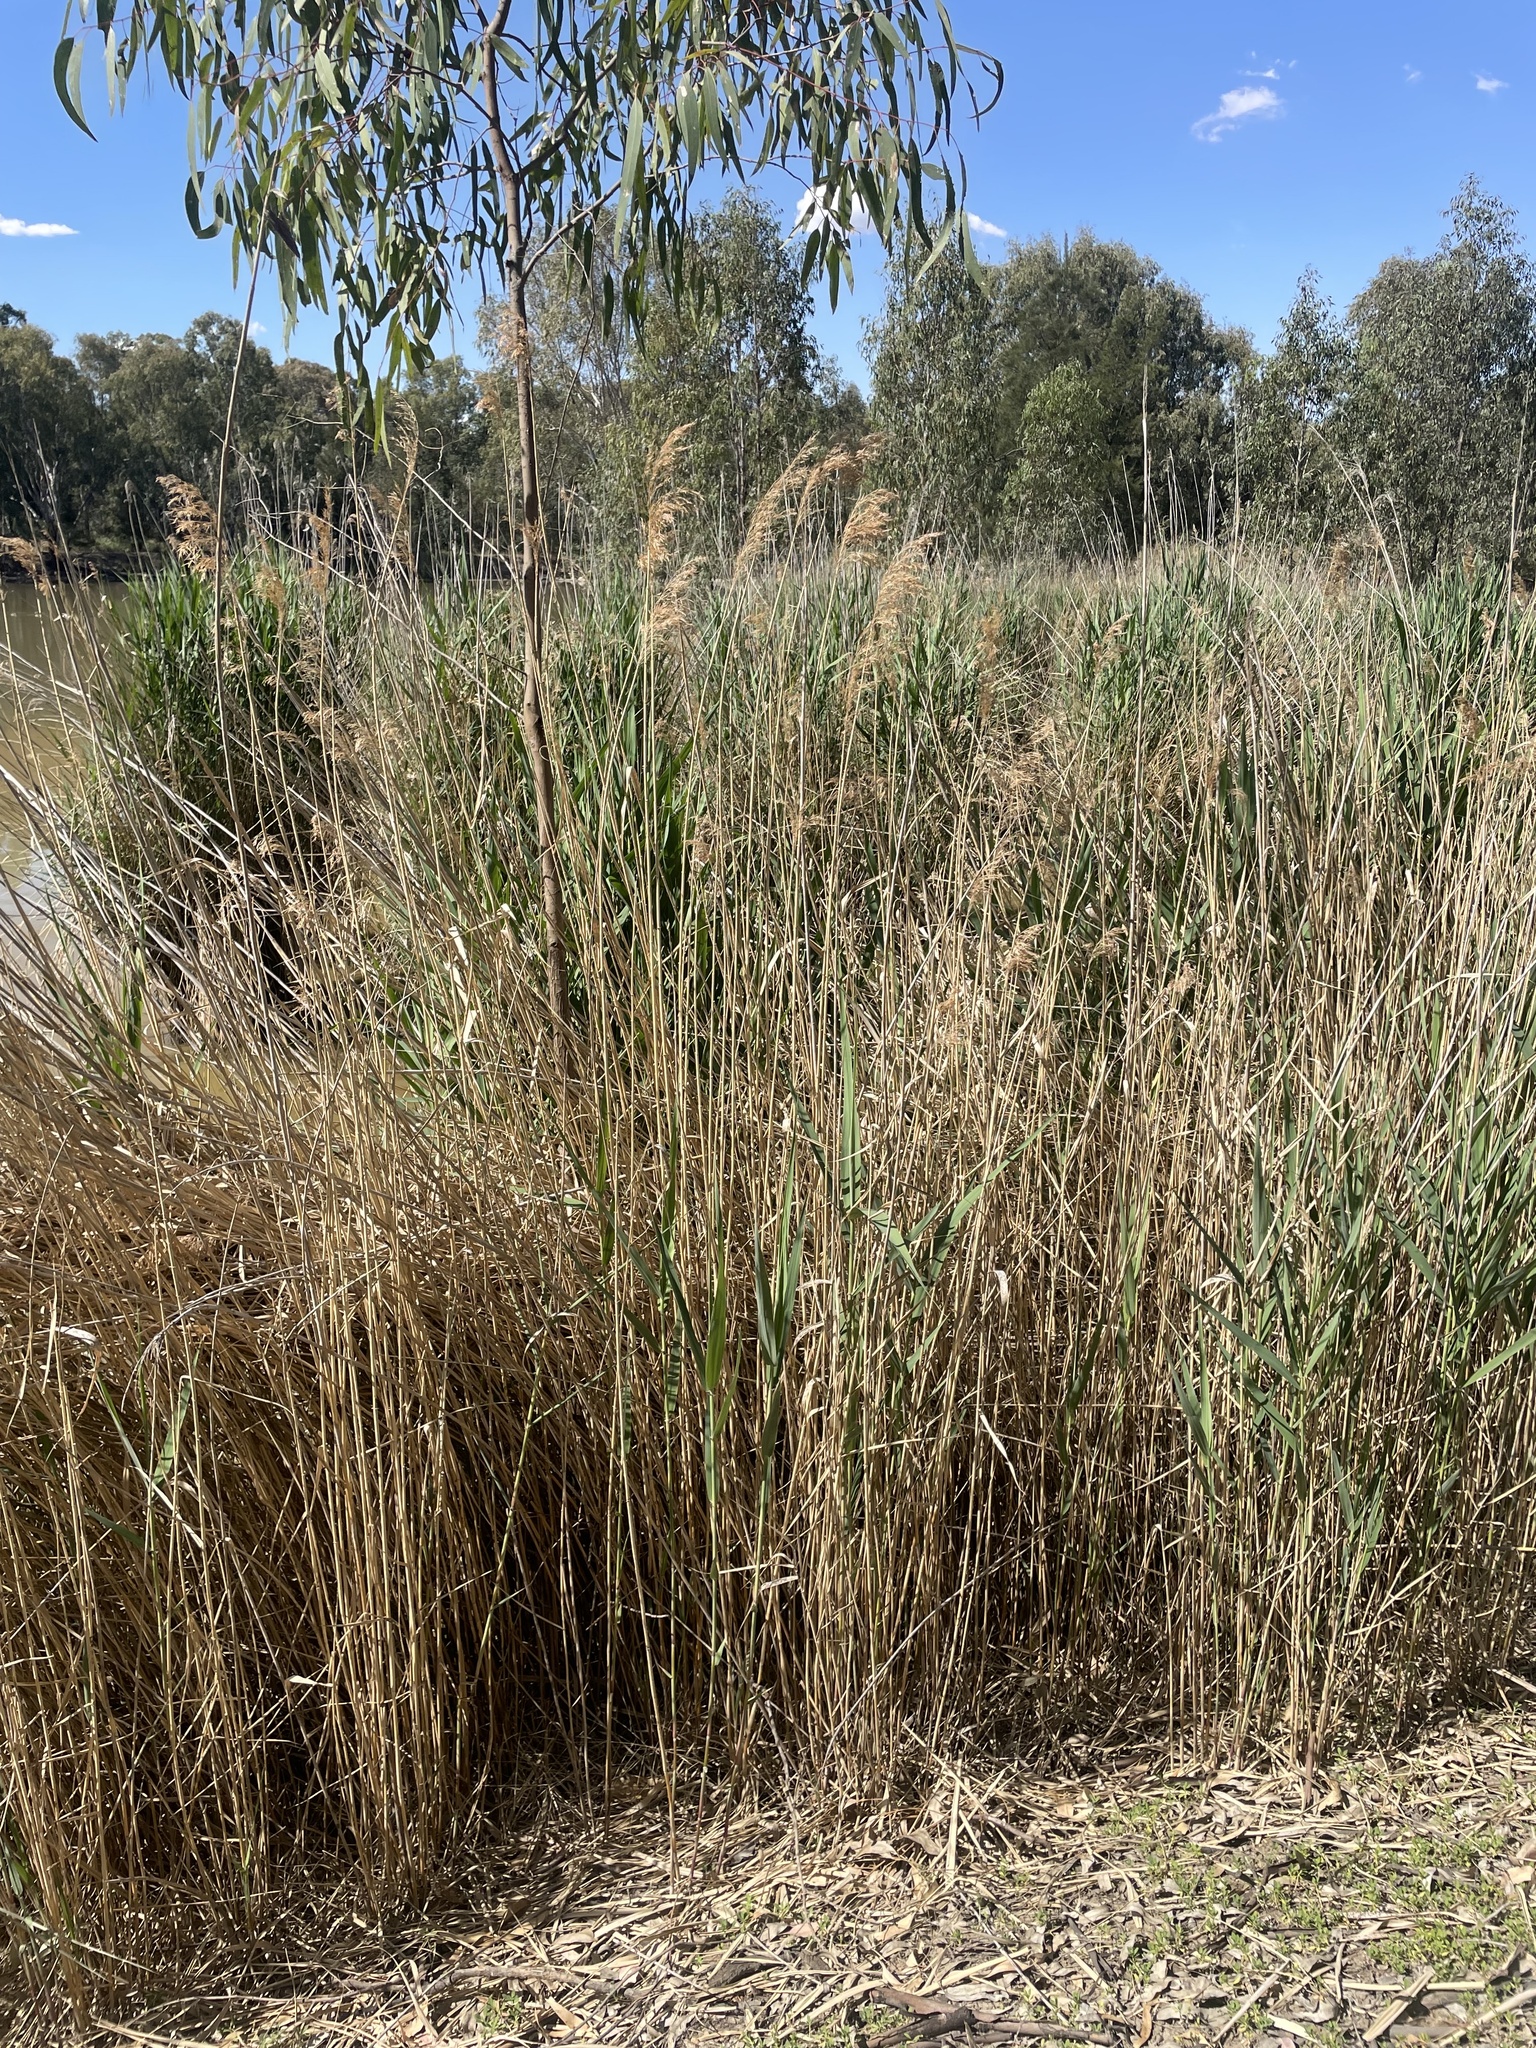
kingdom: Plantae
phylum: Tracheophyta
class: Liliopsida
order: Poales
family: Poaceae
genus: Phragmites
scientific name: Phragmites australis
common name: Common reed
